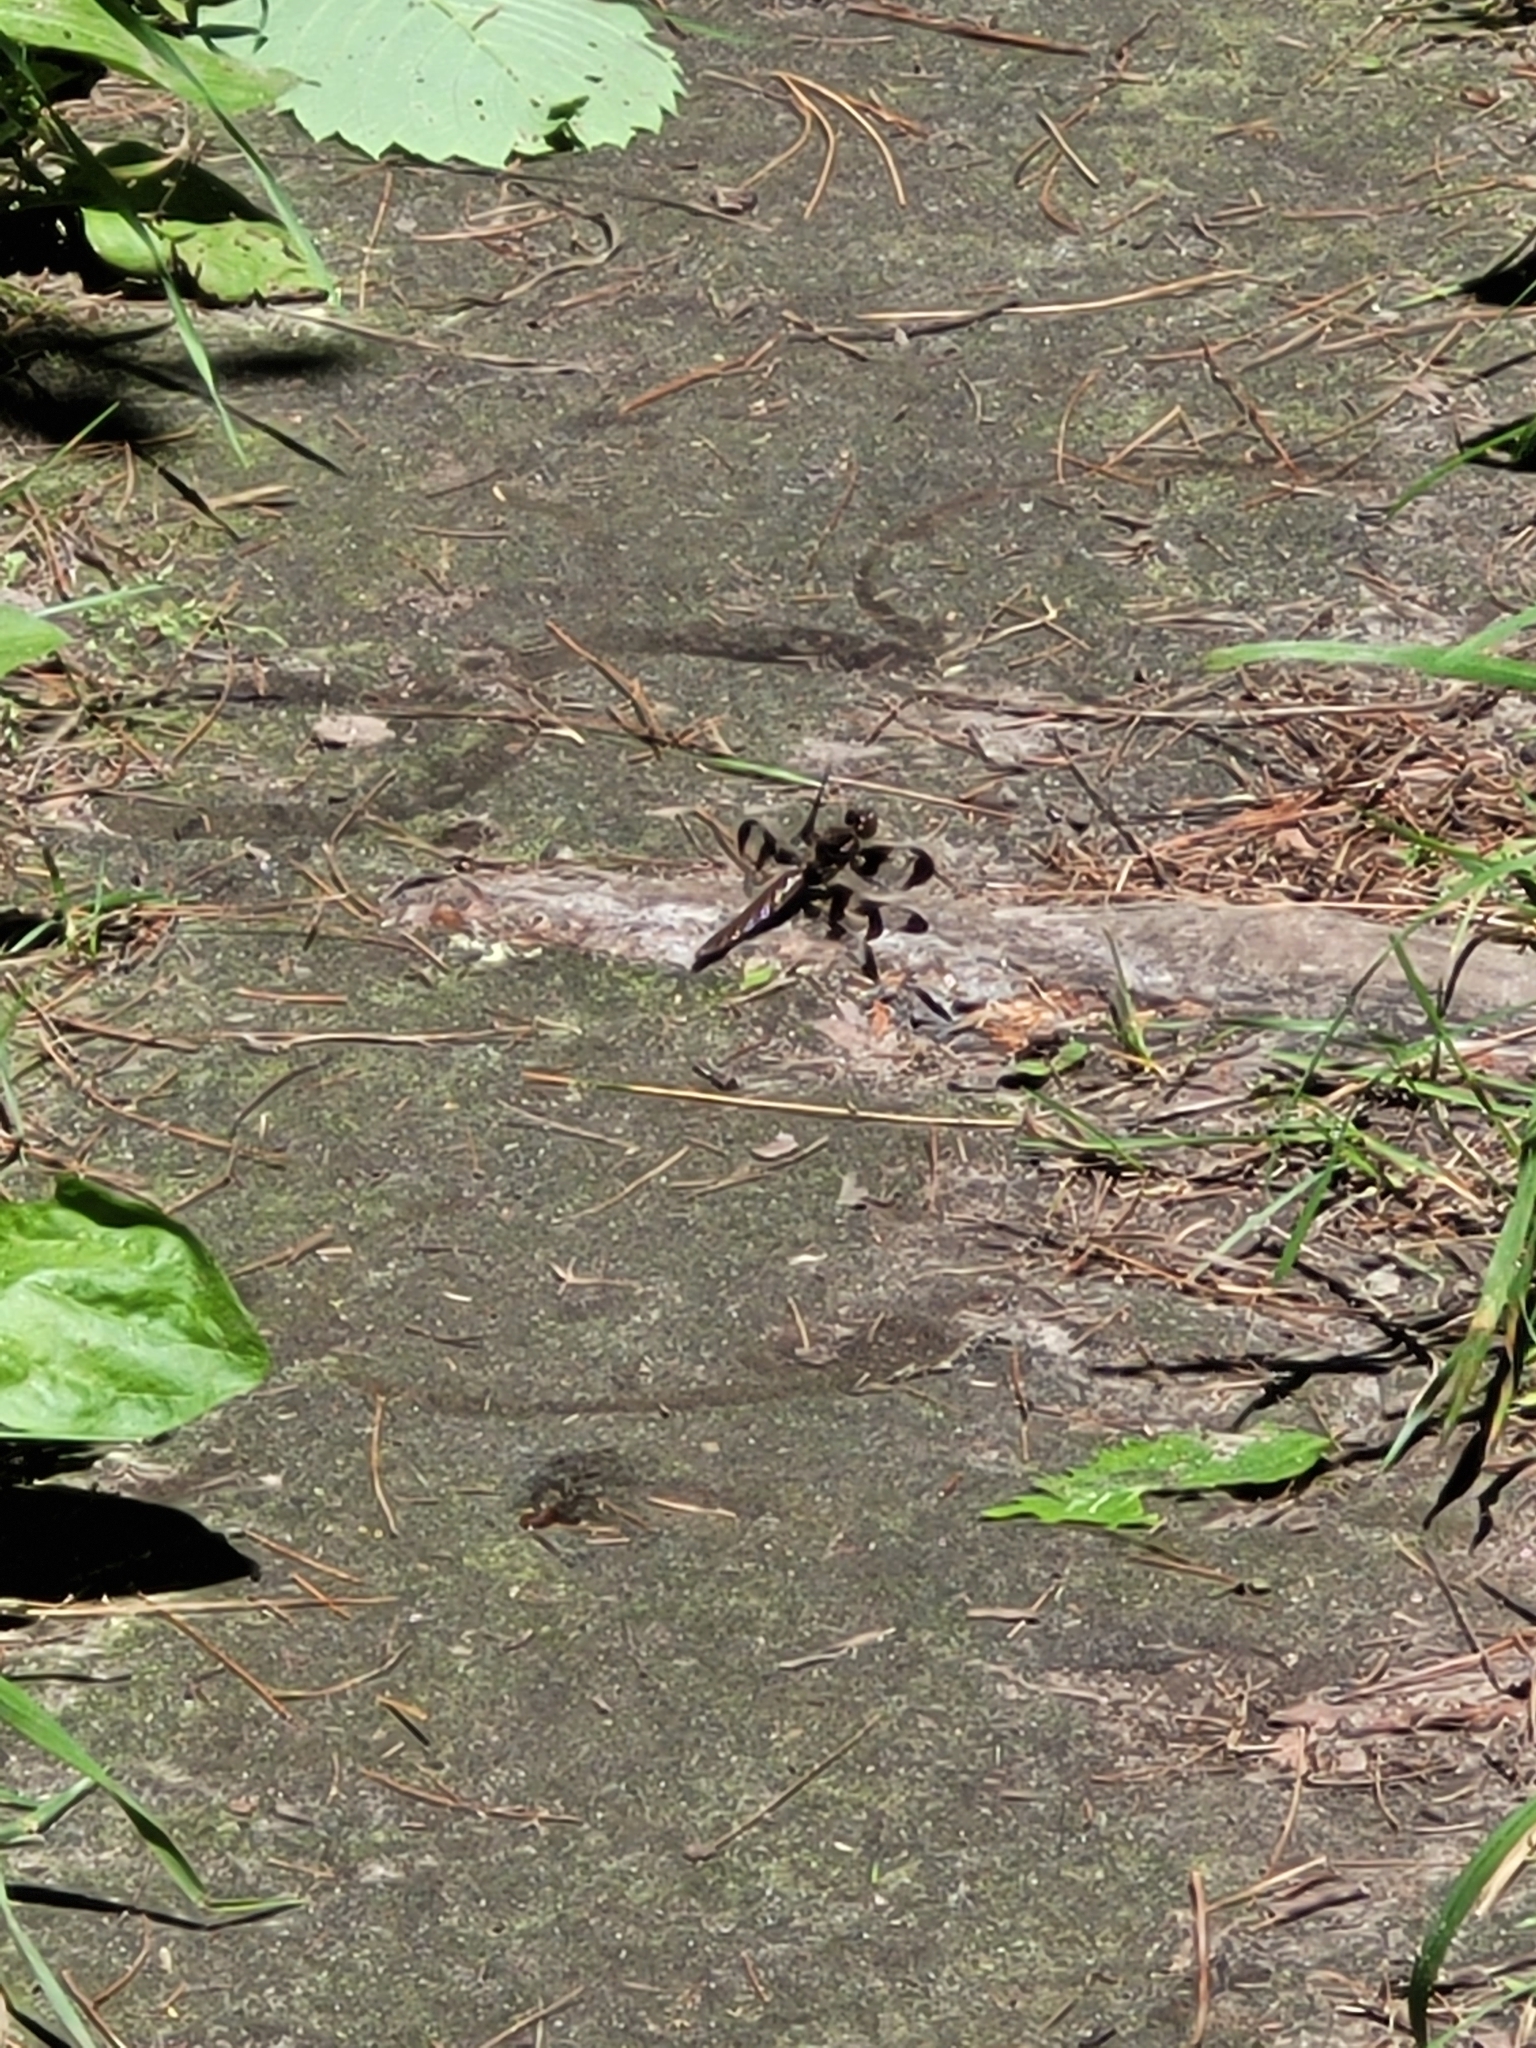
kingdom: Animalia
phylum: Arthropoda
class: Insecta
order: Odonata
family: Libellulidae
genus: Plathemis
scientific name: Plathemis lydia
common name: Common whitetail
